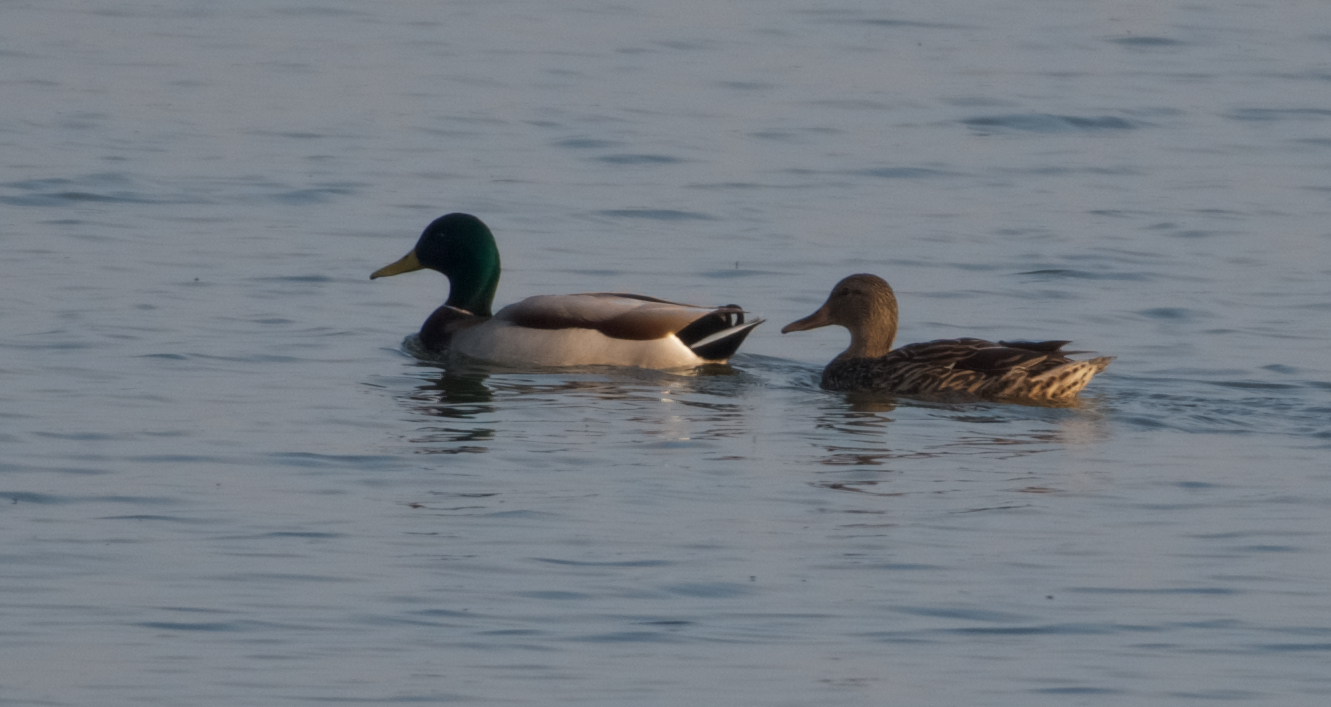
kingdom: Animalia
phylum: Chordata
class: Aves
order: Anseriformes
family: Anatidae
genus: Anas
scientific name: Anas platyrhynchos
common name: Mallard
